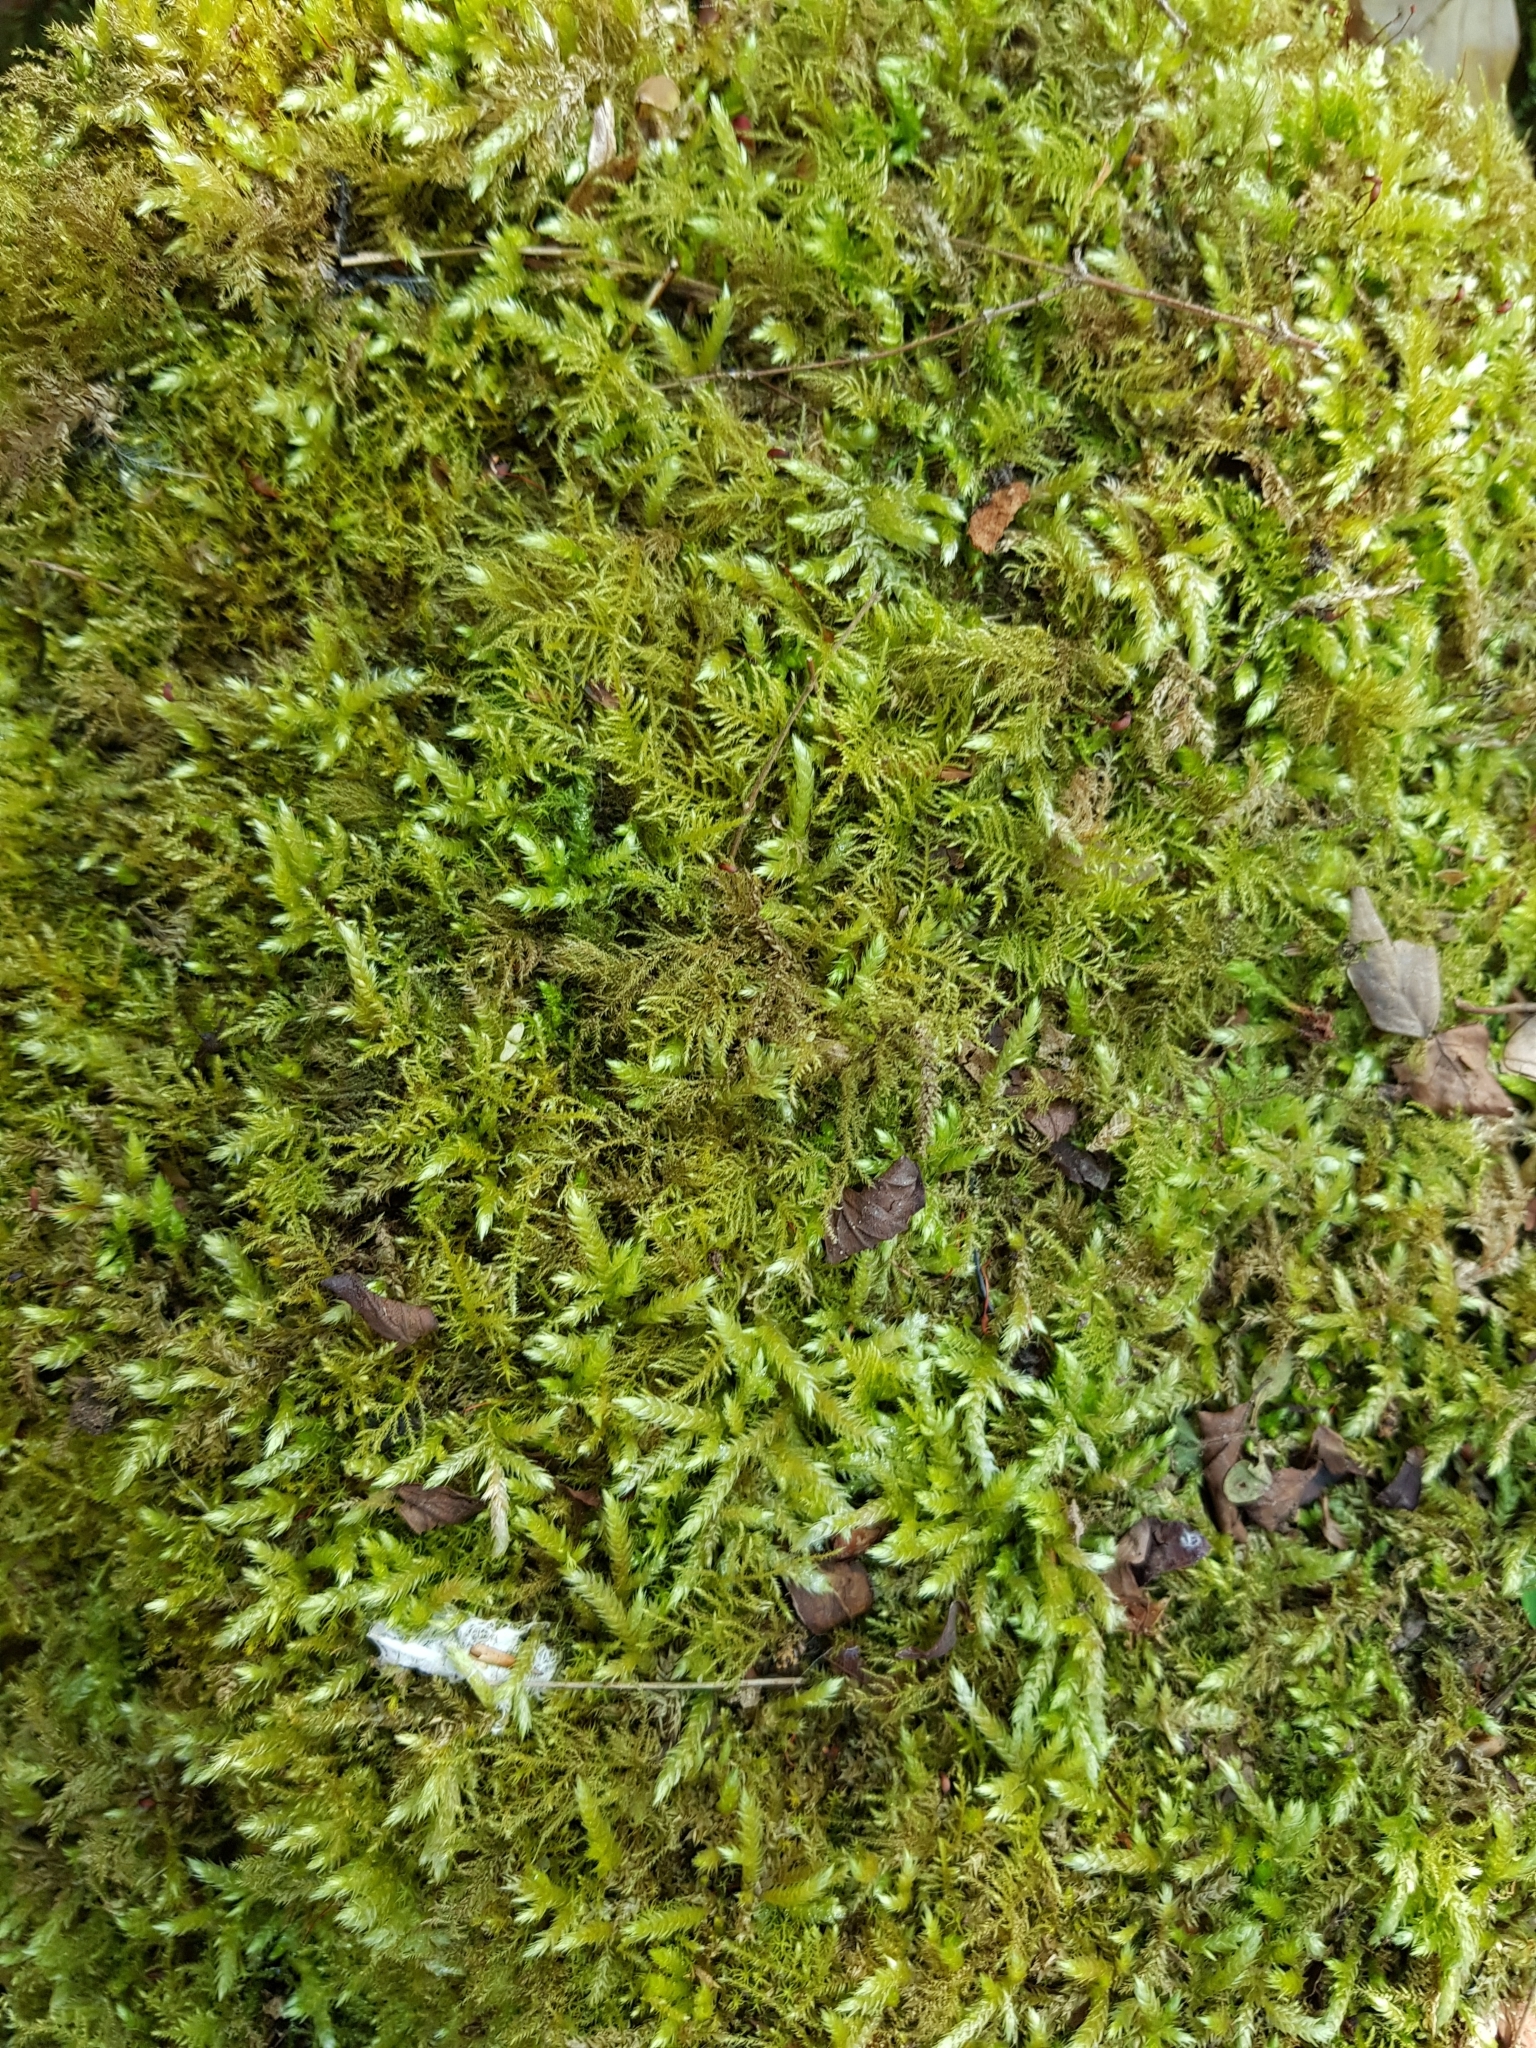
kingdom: Plantae
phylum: Bryophyta
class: Bryopsida
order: Hypnales
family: Brachytheciaceae
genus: Brachythecium
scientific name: Brachythecium rutabulum
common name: Rough-stalked feather-moss
